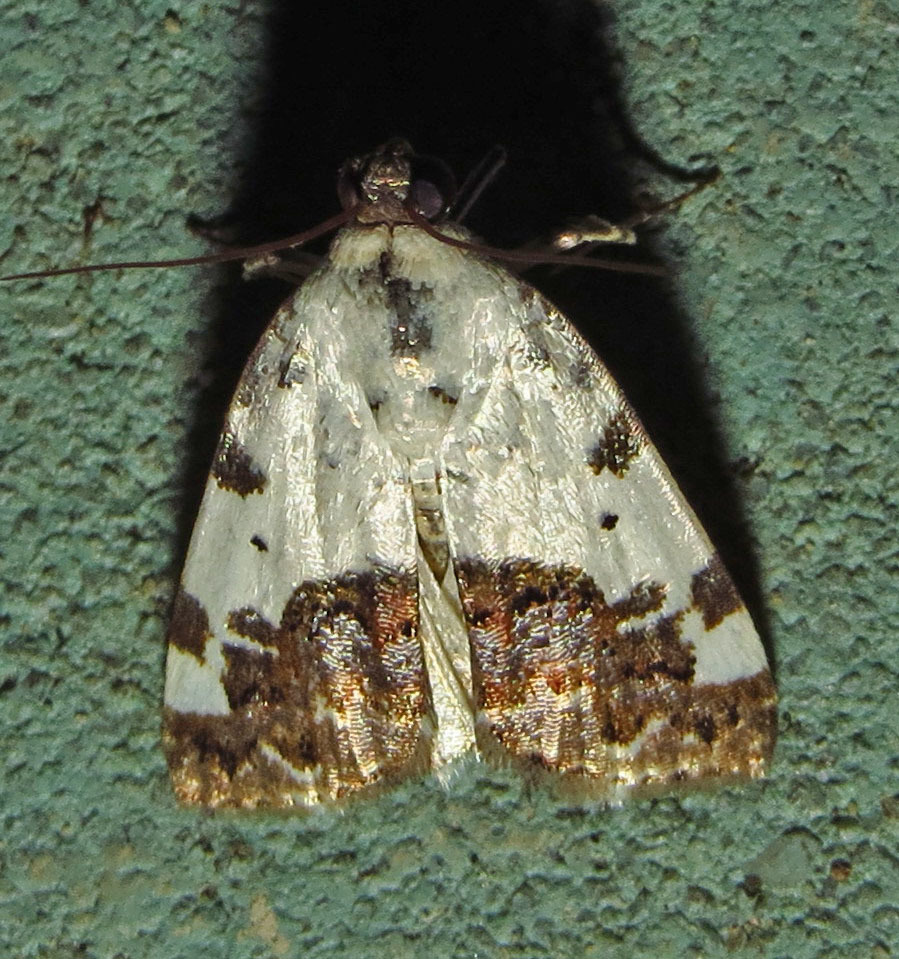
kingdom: Animalia
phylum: Arthropoda
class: Insecta
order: Lepidoptera
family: Noctuidae
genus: Acontia
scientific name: Acontia aprica
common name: Nun
